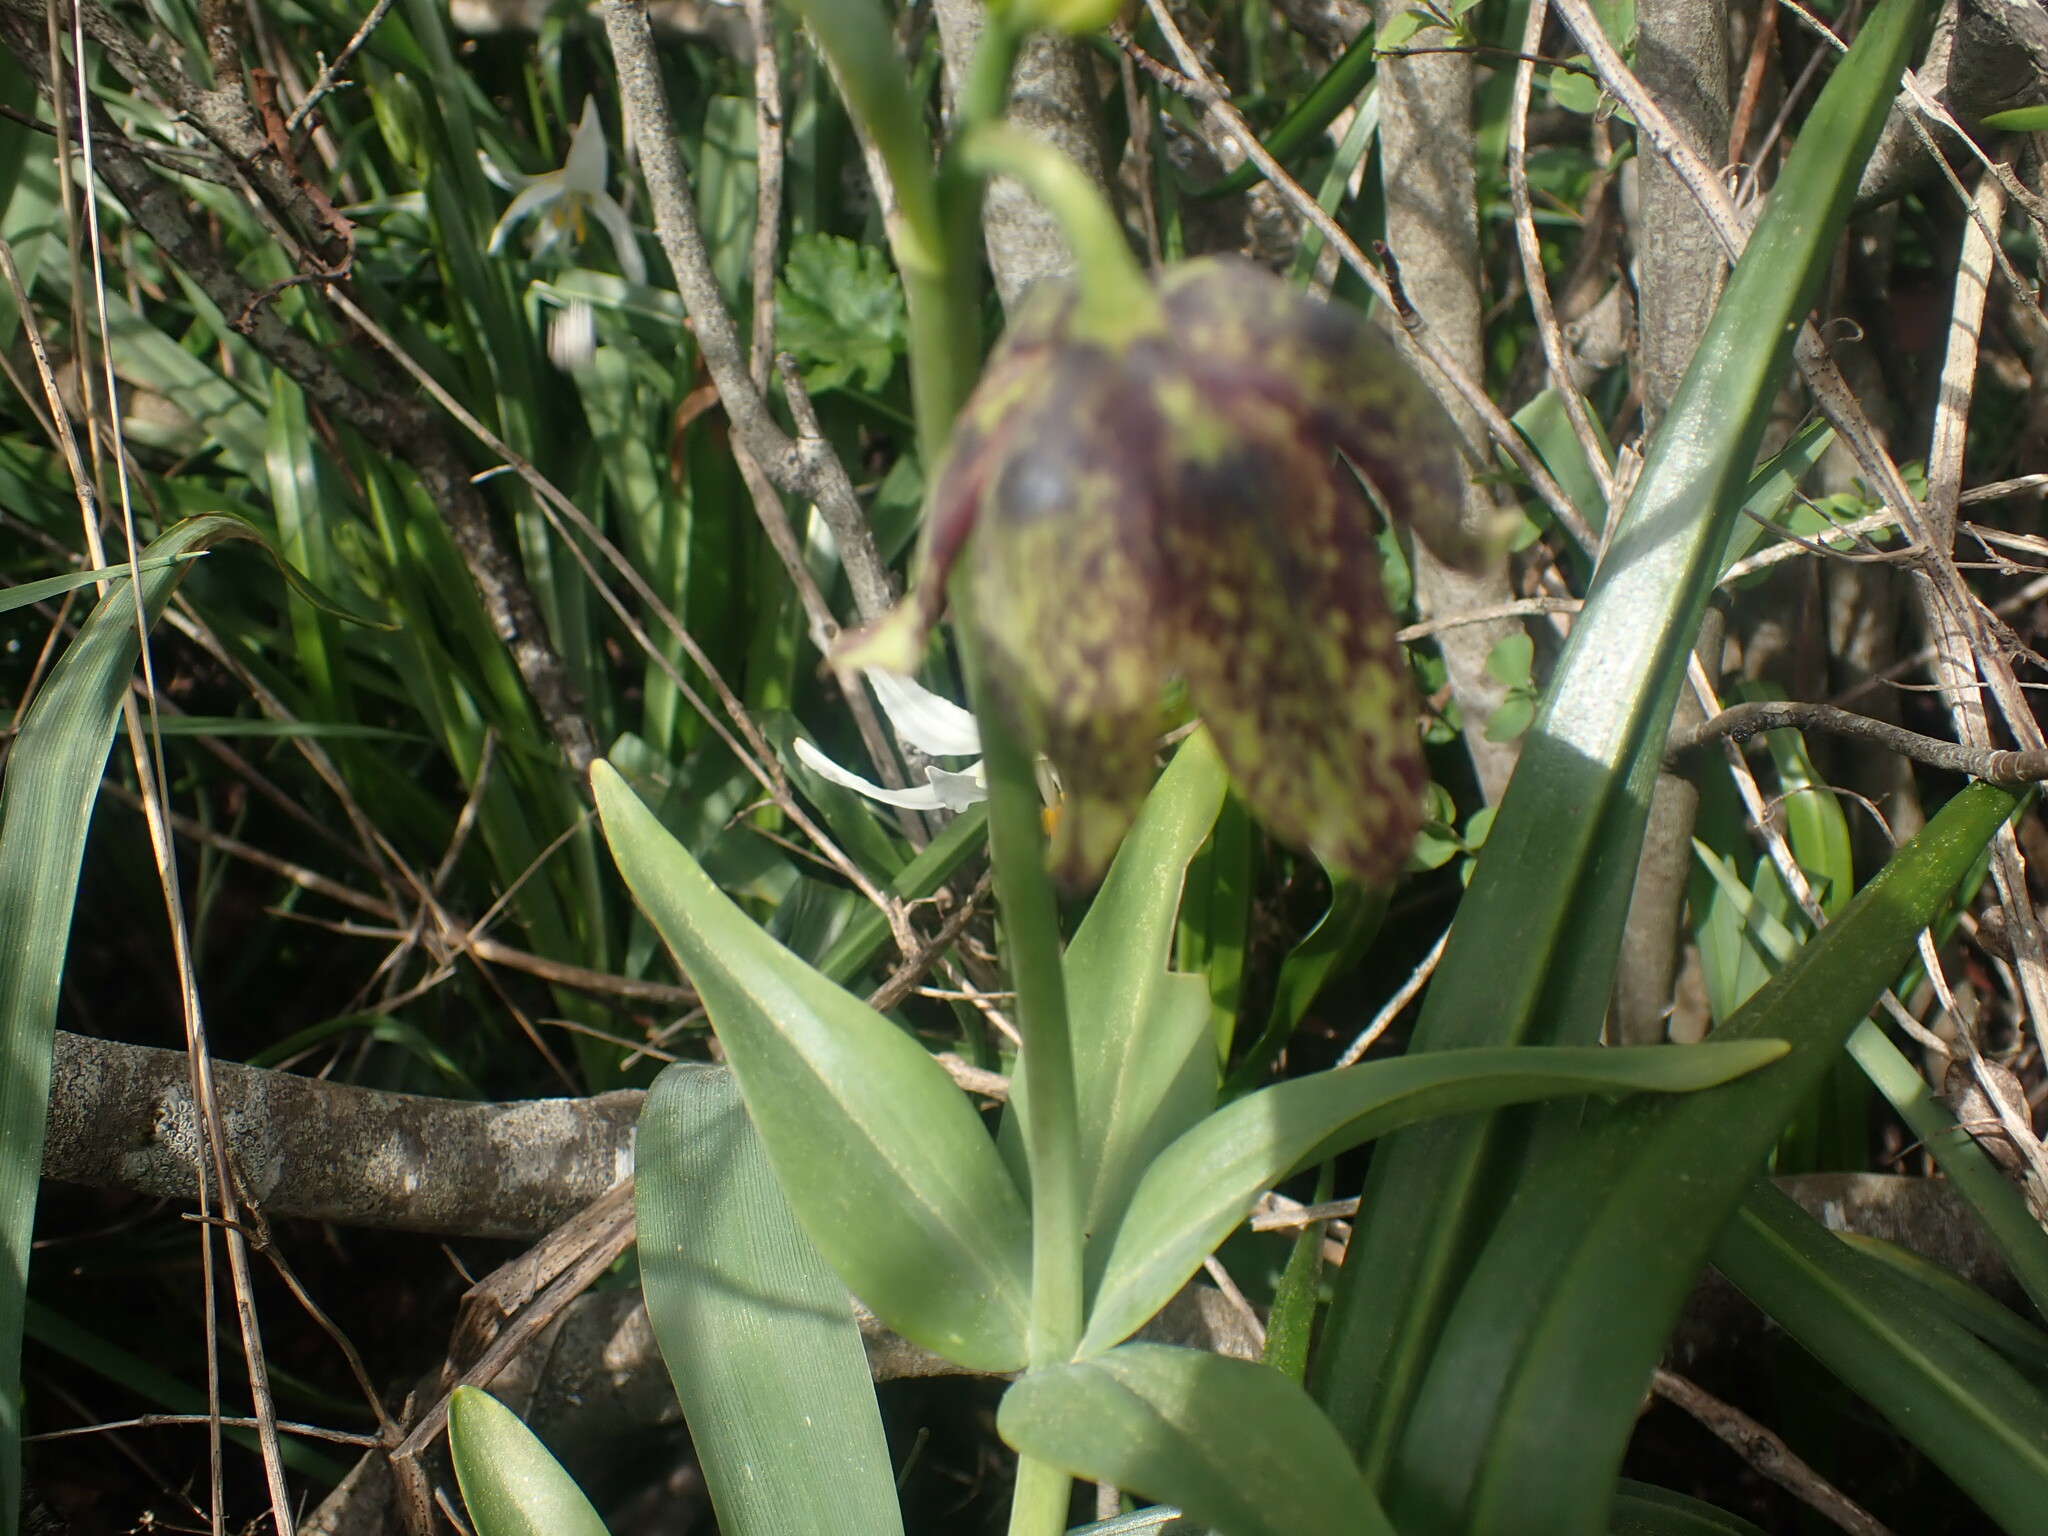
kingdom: Plantae
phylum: Tracheophyta
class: Liliopsida
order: Liliales
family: Liliaceae
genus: Fritillaria
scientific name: Fritillaria affinis
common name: Ojai fritillary
